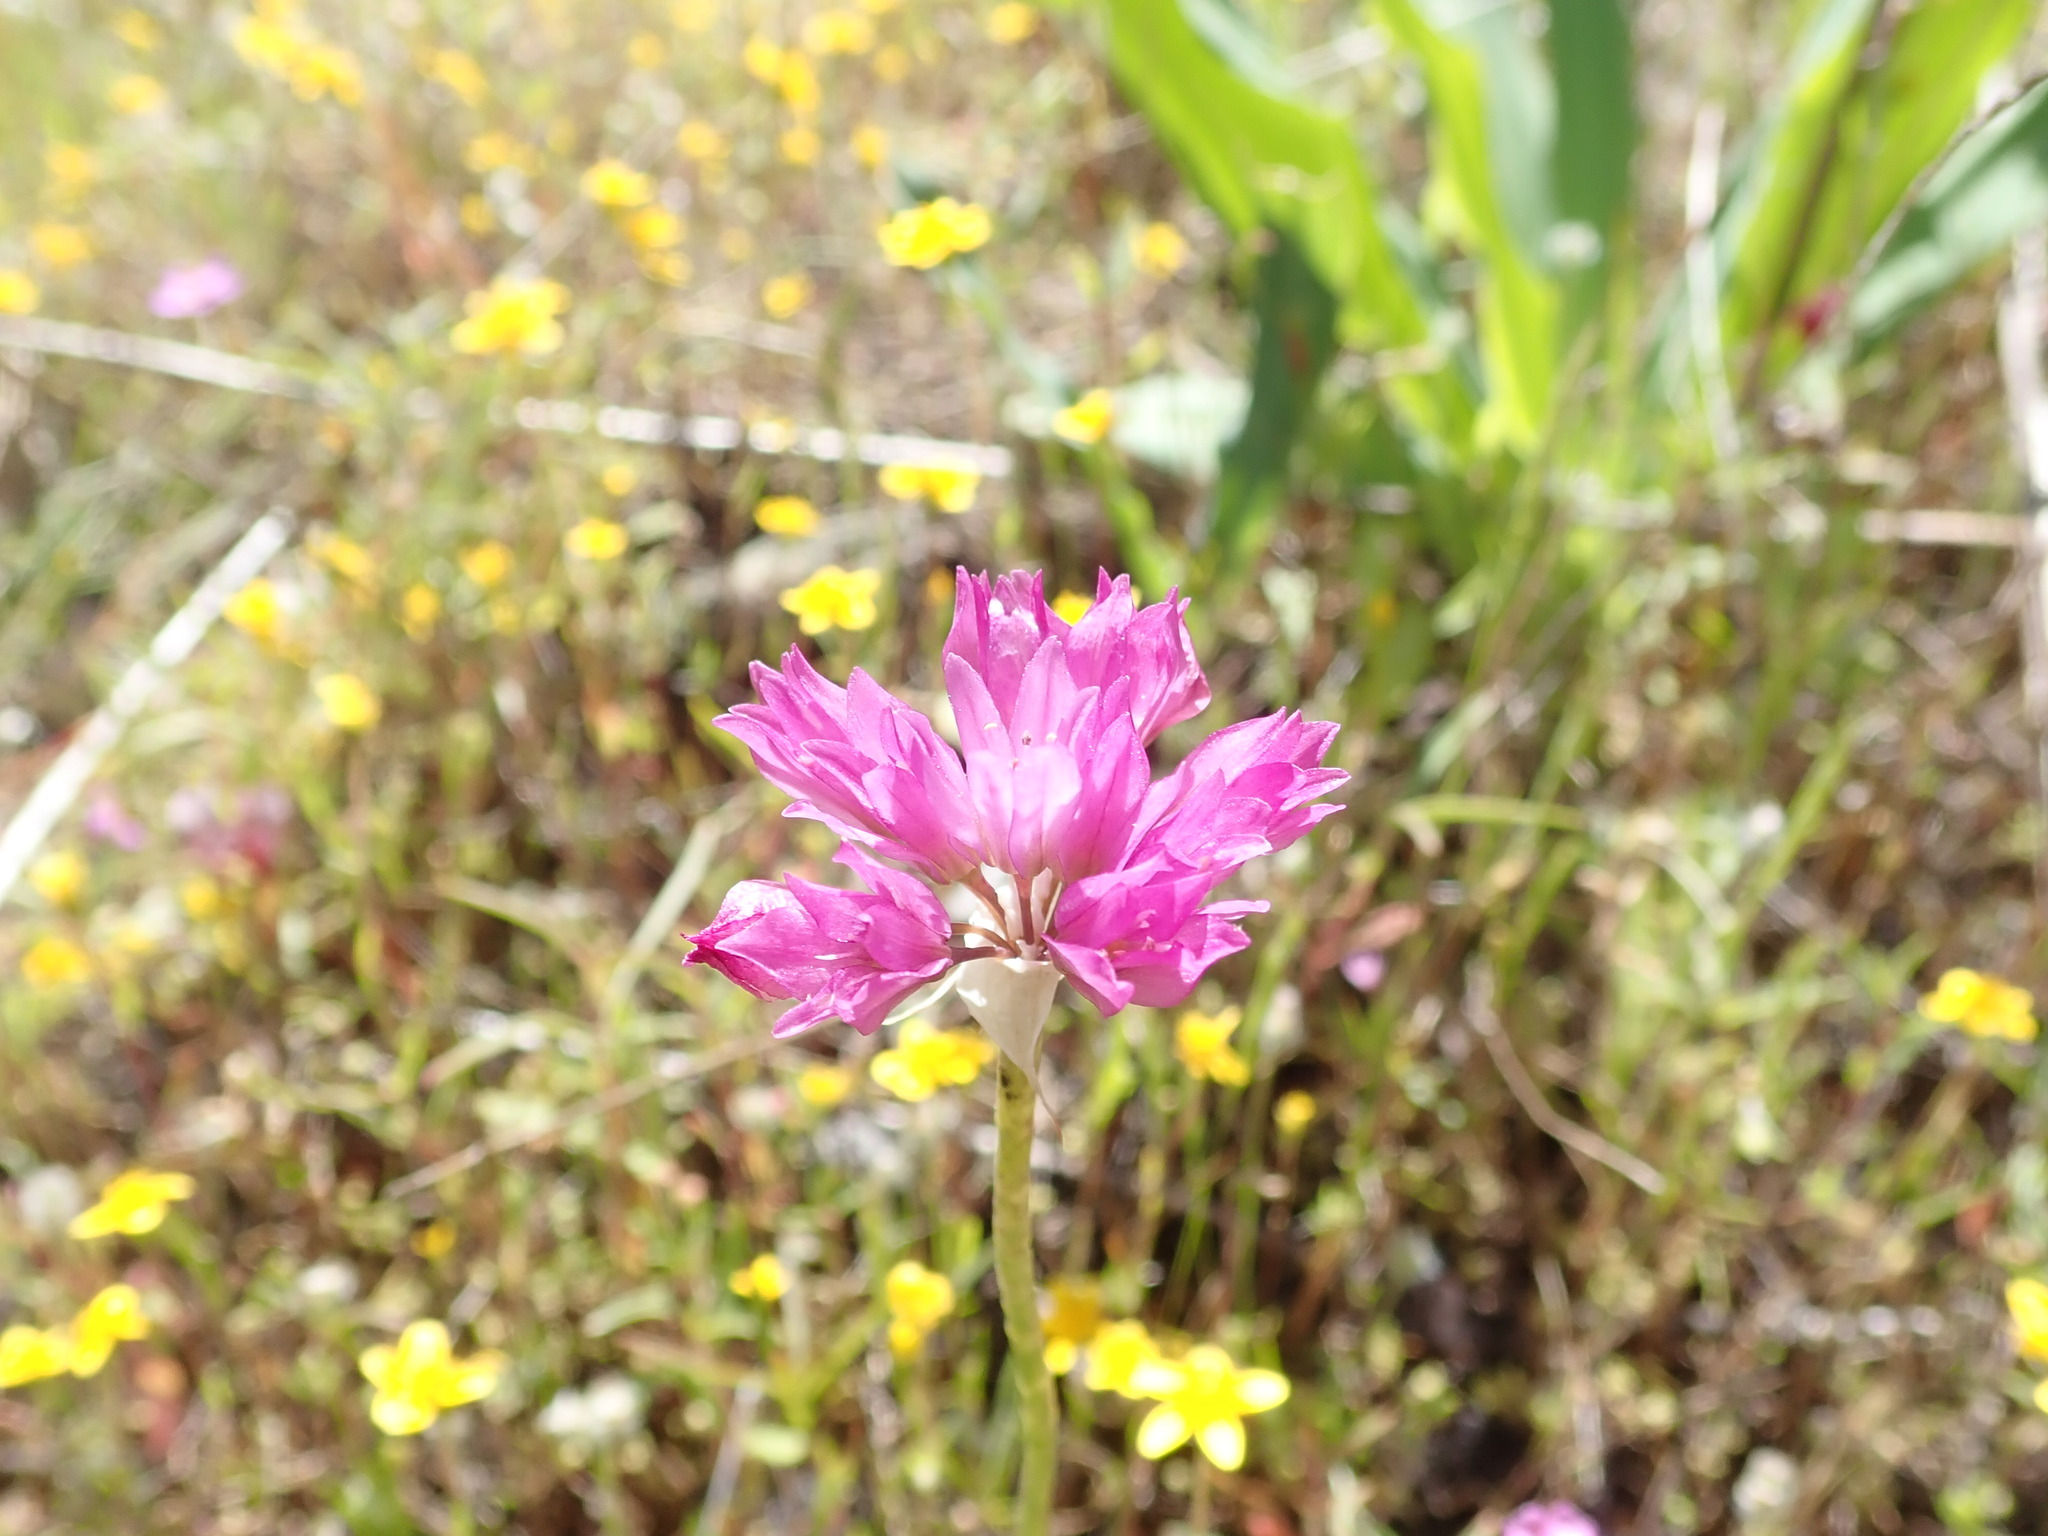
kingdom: Plantae
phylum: Tracheophyta
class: Liliopsida
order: Asparagales
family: Amaryllidaceae
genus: Allium
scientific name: Allium serra
